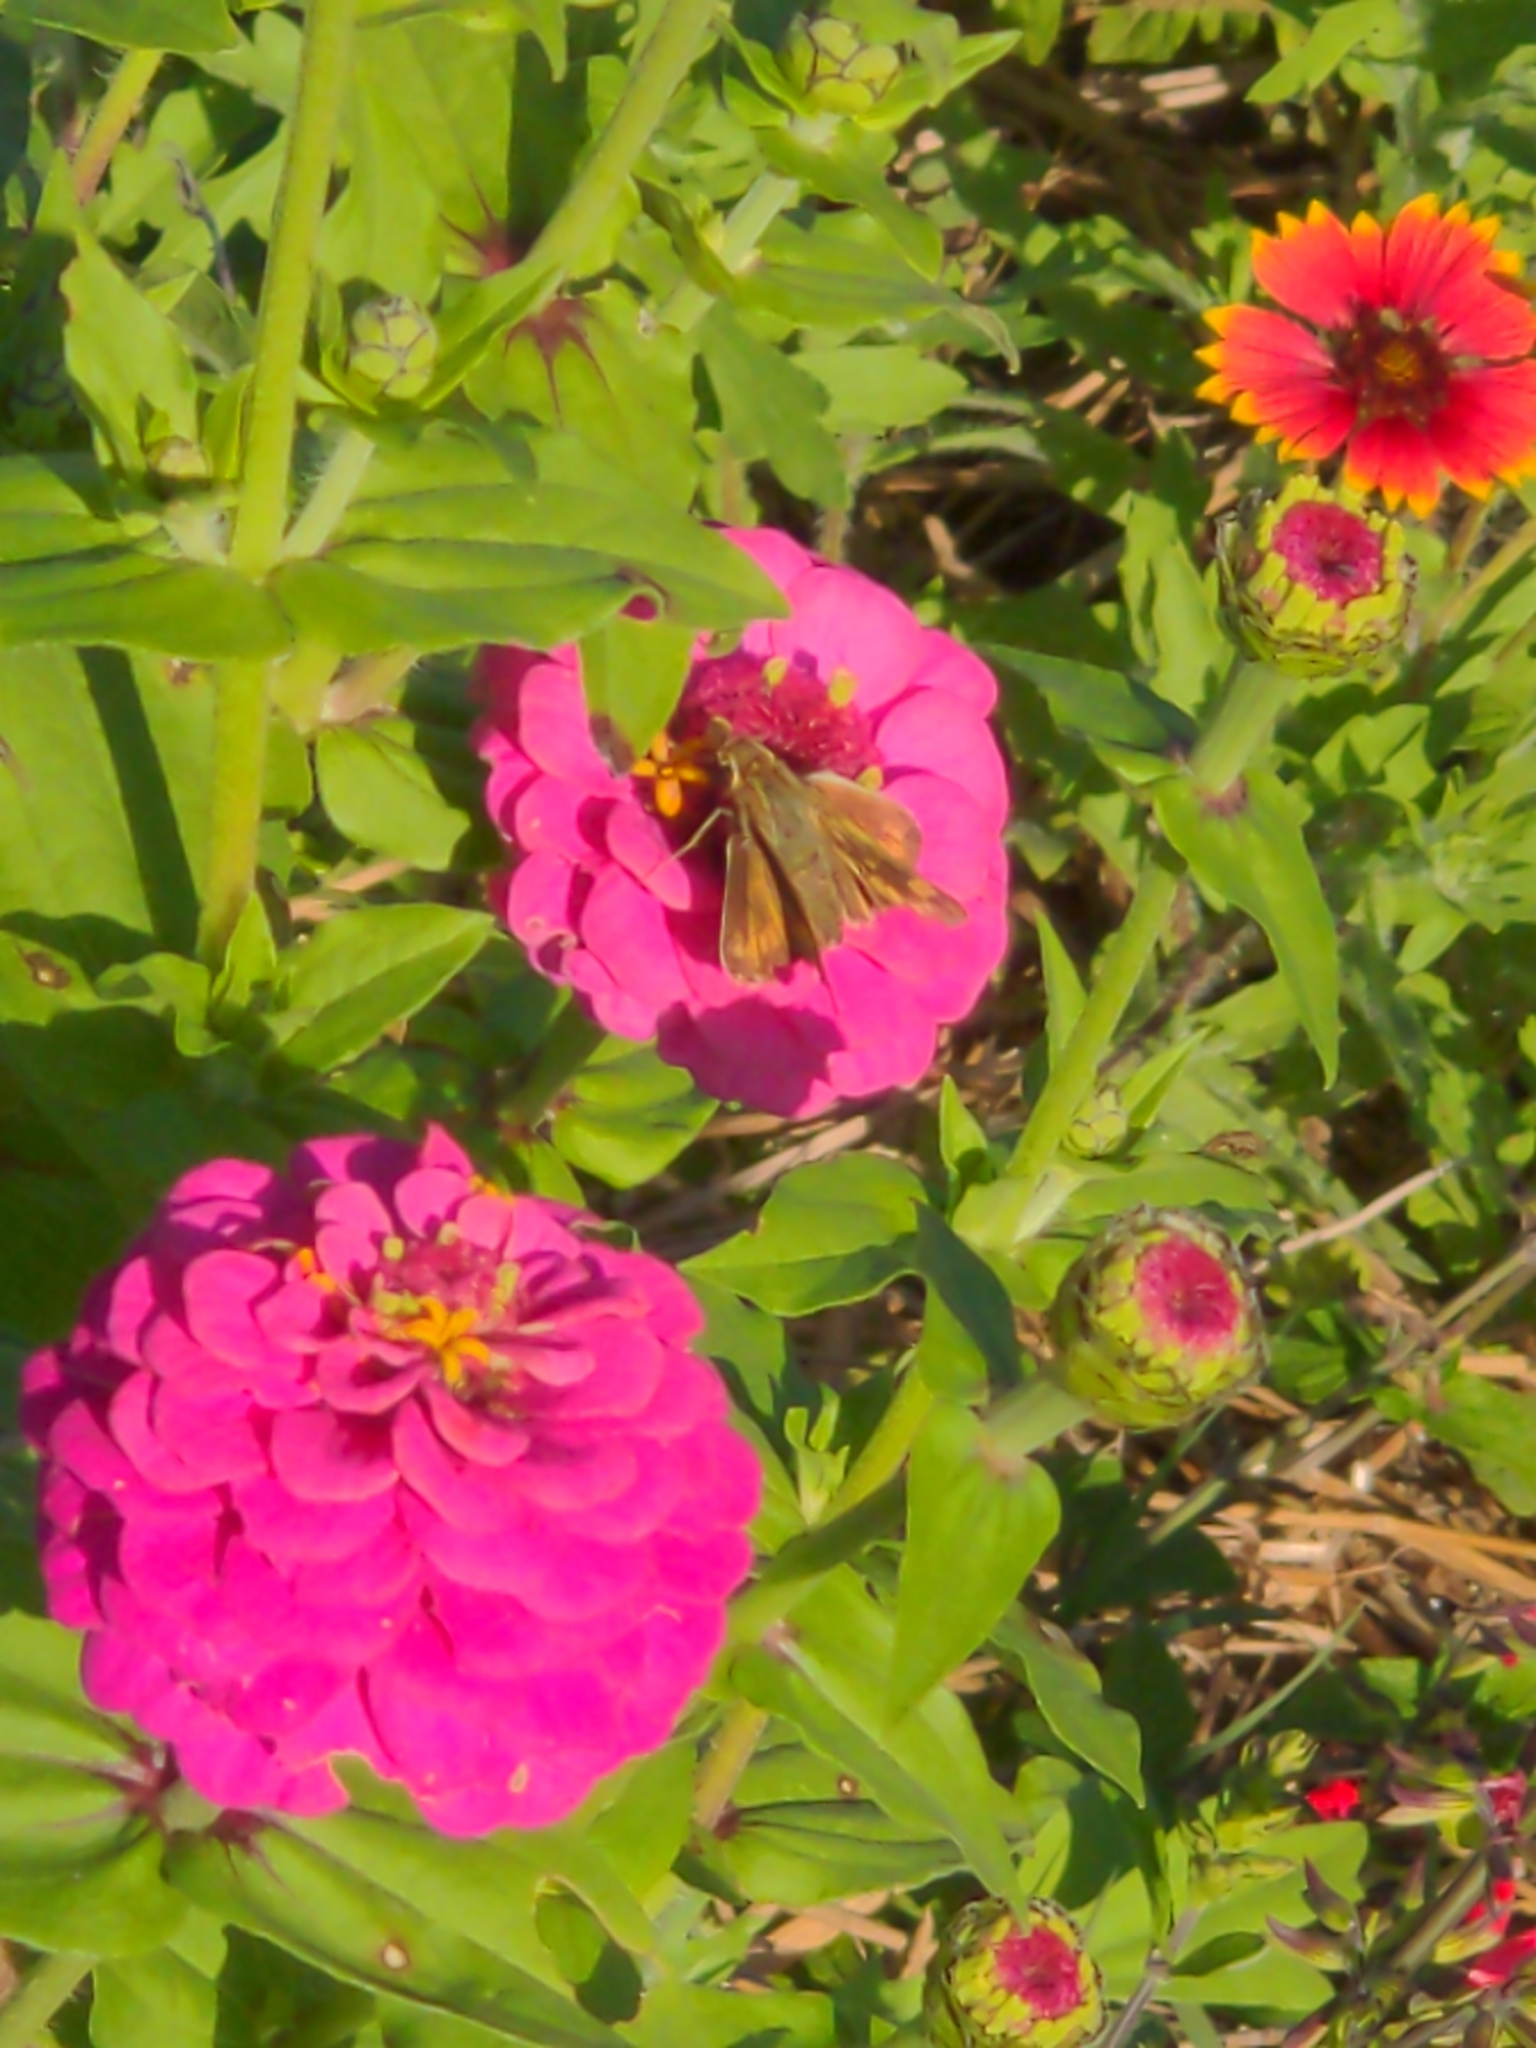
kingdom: Animalia
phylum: Arthropoda
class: Insecta
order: Lepidoptera
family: Hesperiidae
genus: Atalopedes
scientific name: Atalopedes
